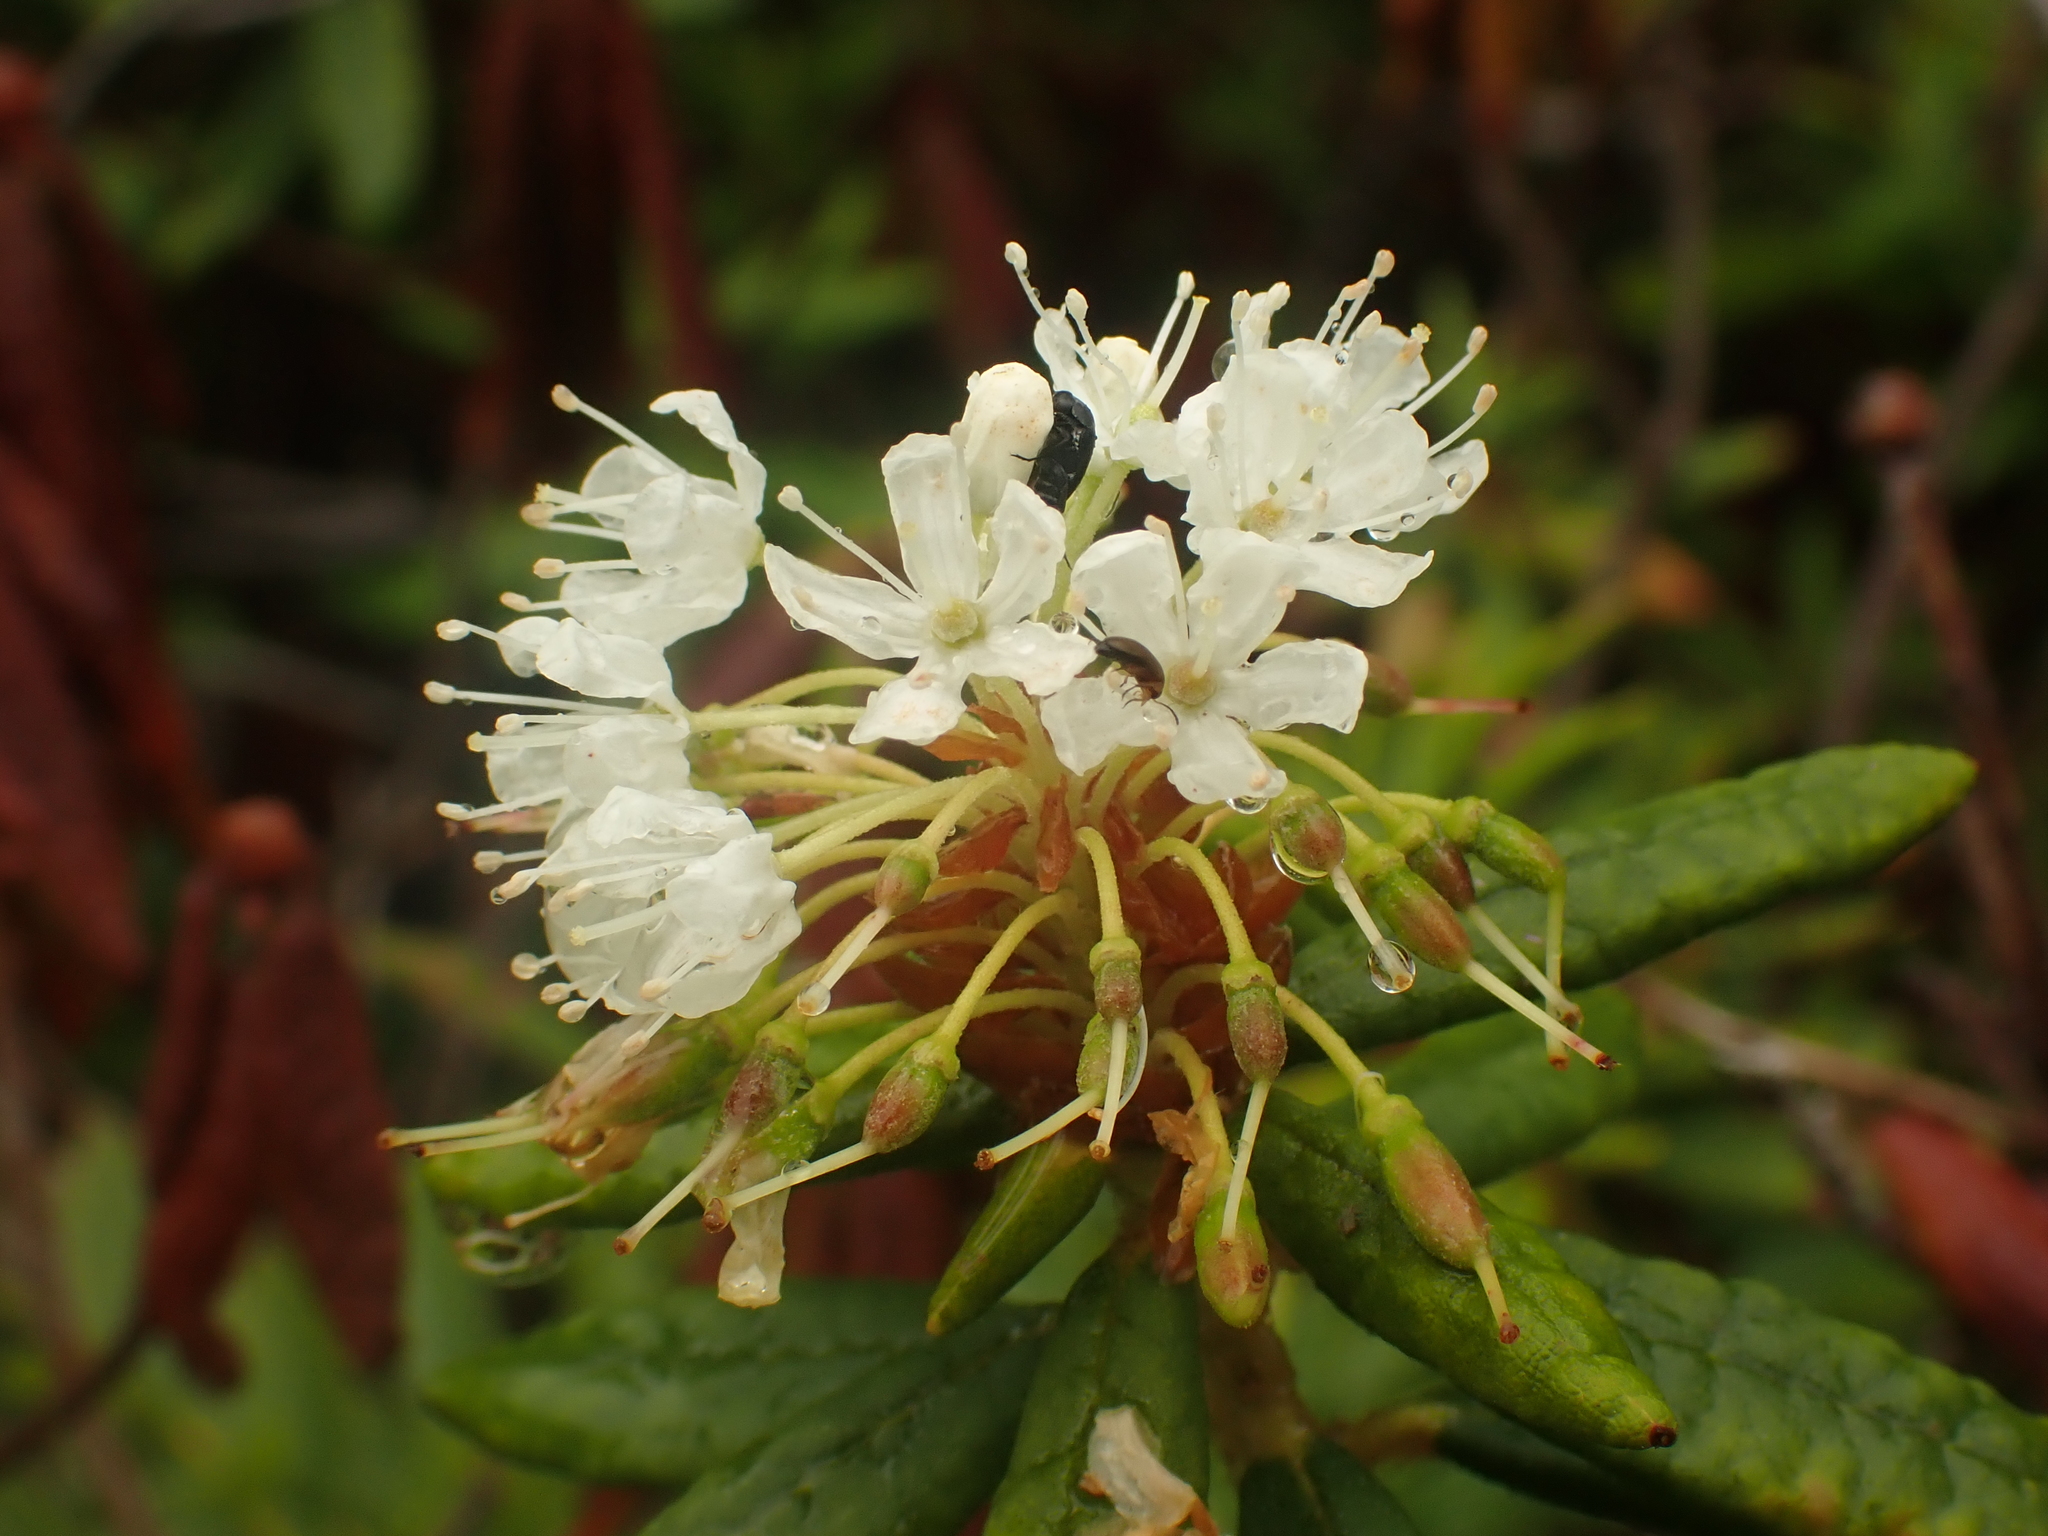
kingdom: Plantae
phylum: Tracheophyta
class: Magnoliopsida
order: Ericales
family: Ericaceae
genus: Rhododendron
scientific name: Rhododendron groenlandicum
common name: Bog labrador tea
